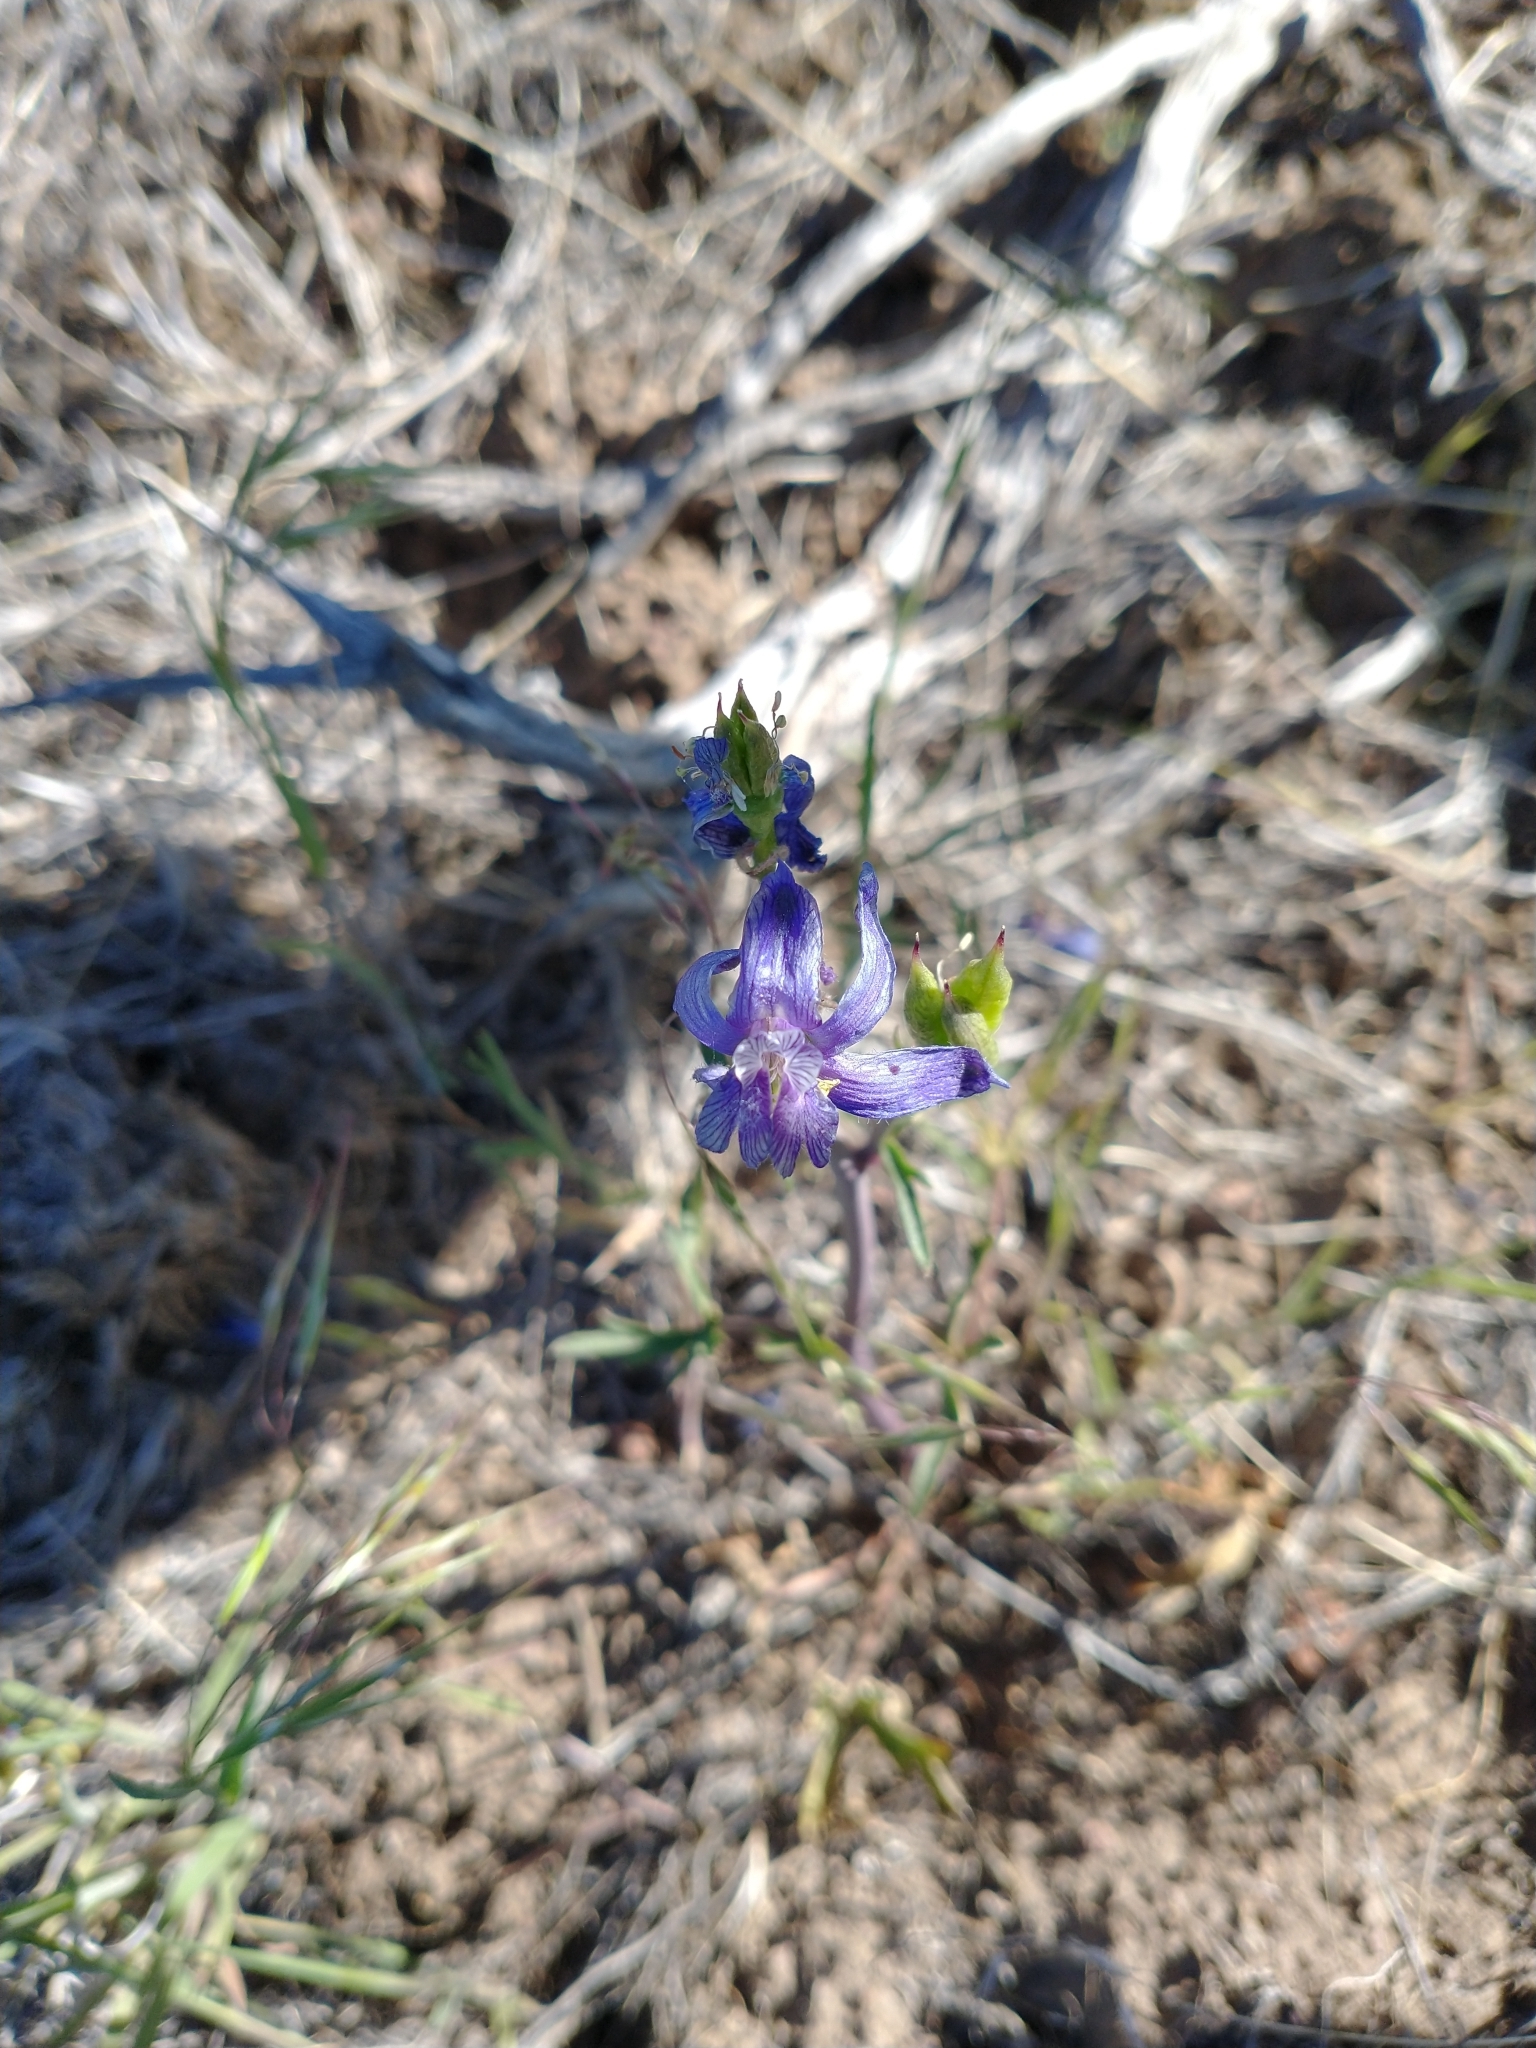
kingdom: Plantae
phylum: Tracheophyta
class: Magnoliopsida
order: Ranunculales
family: Ranunculaceae
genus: Delphinium
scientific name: Delphinium nuttallianum
